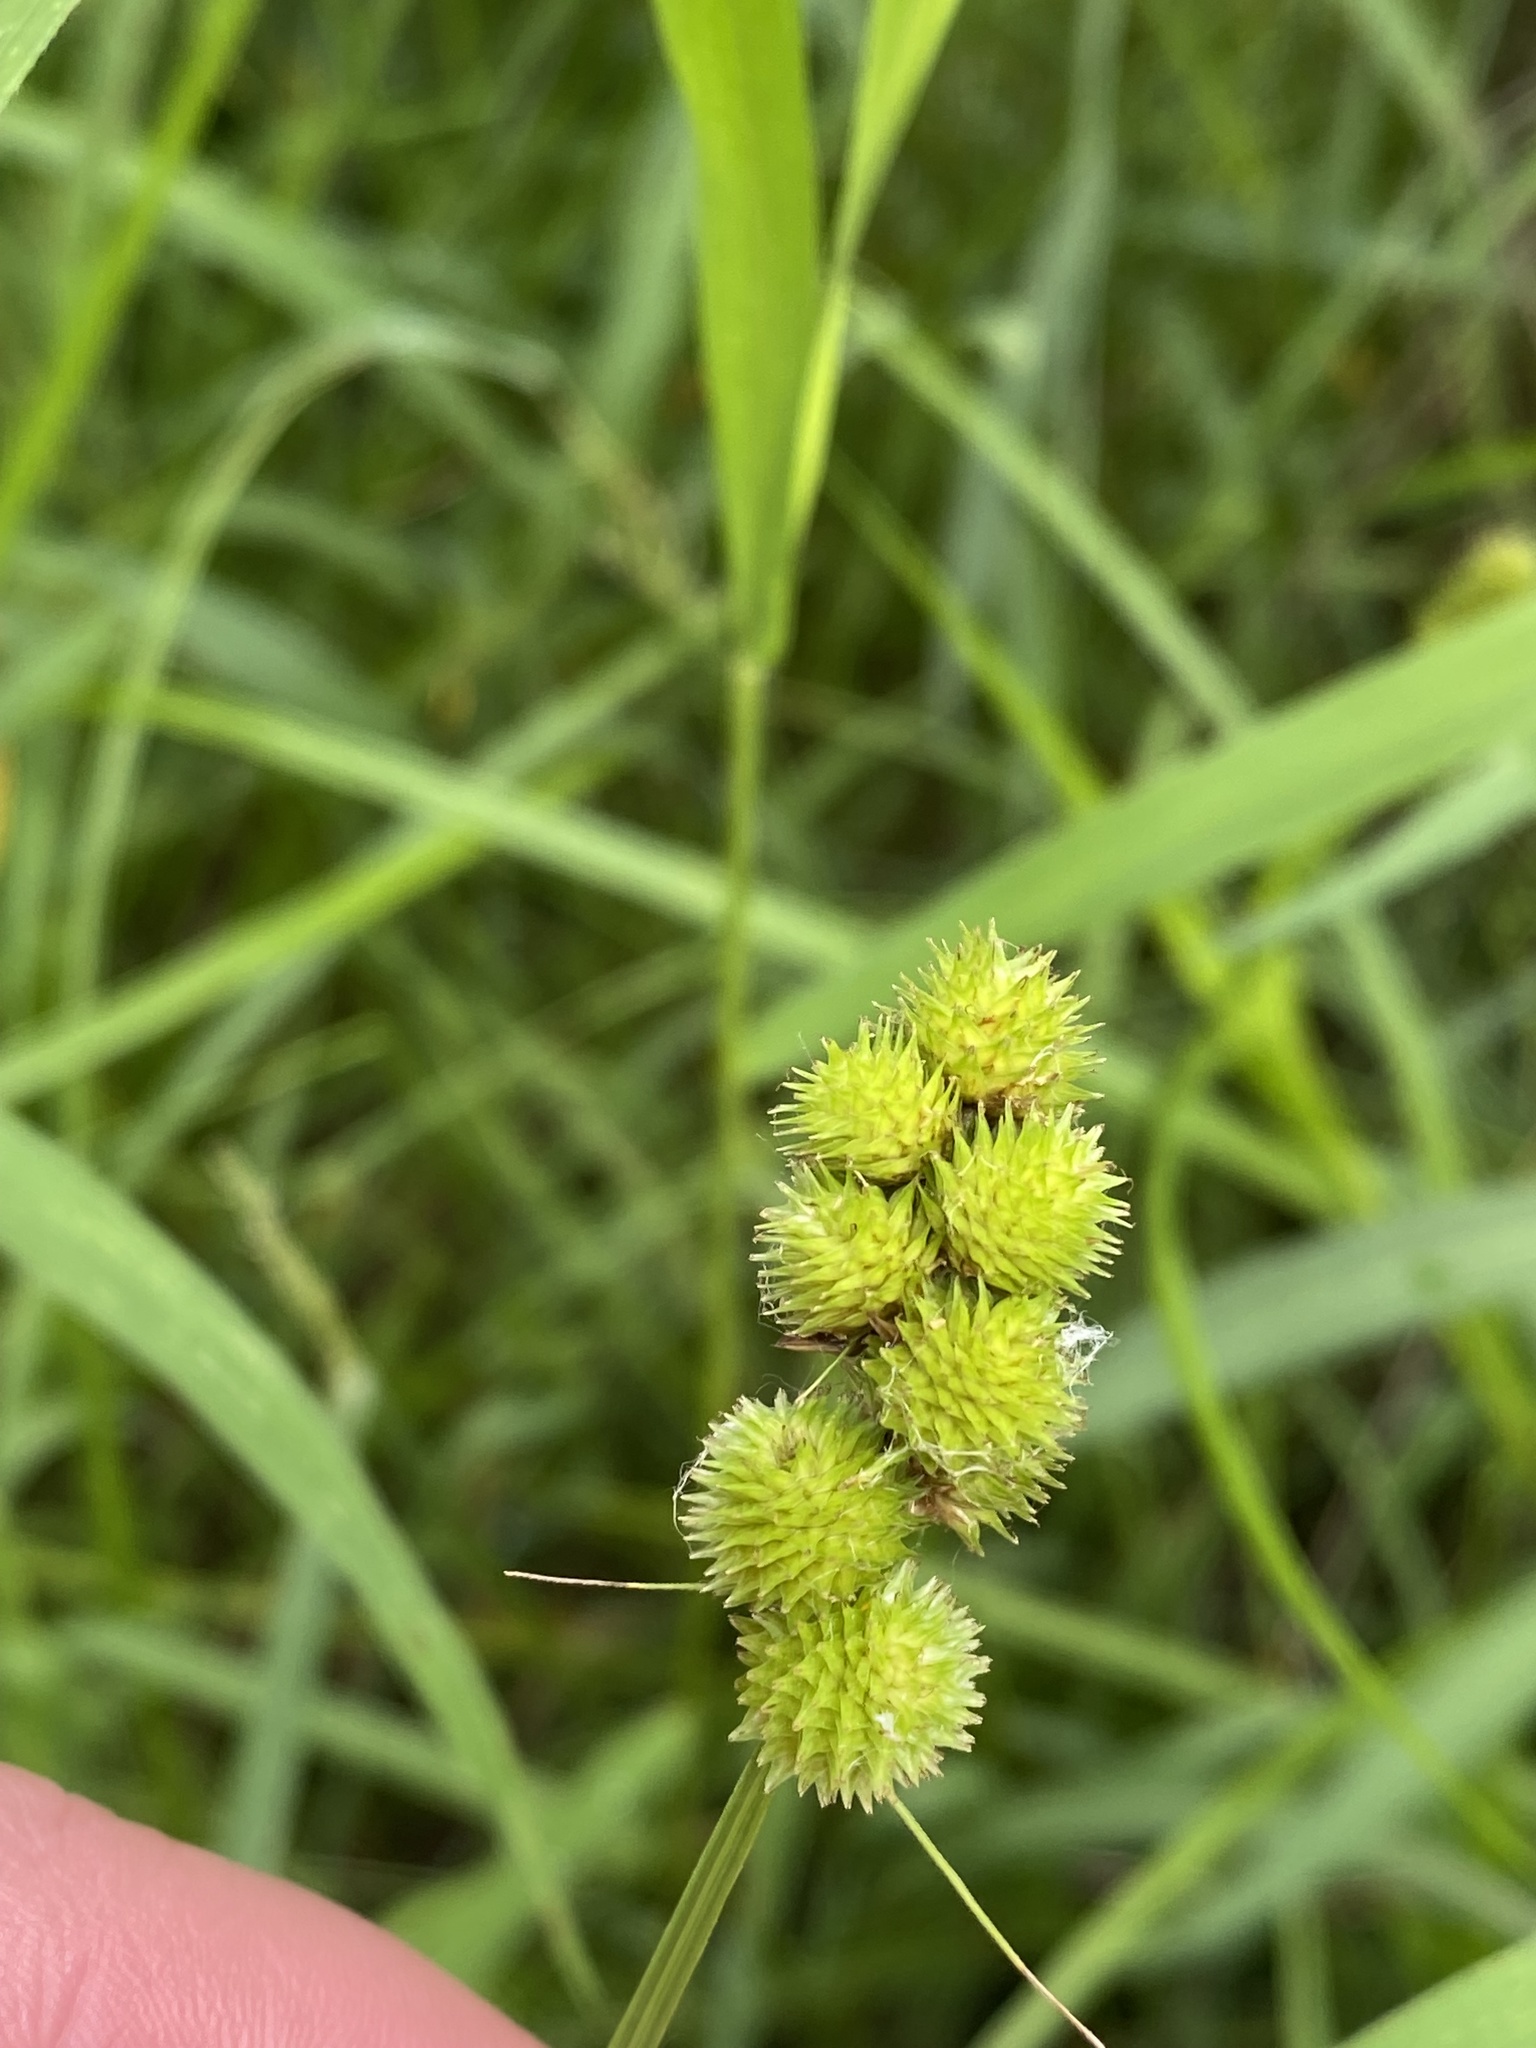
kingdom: Plantae
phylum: Tracheophyta
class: Liliopsida
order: Poales
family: Cyperaceae
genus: Carex
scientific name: Carex cristatella
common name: Crested oval sedge
